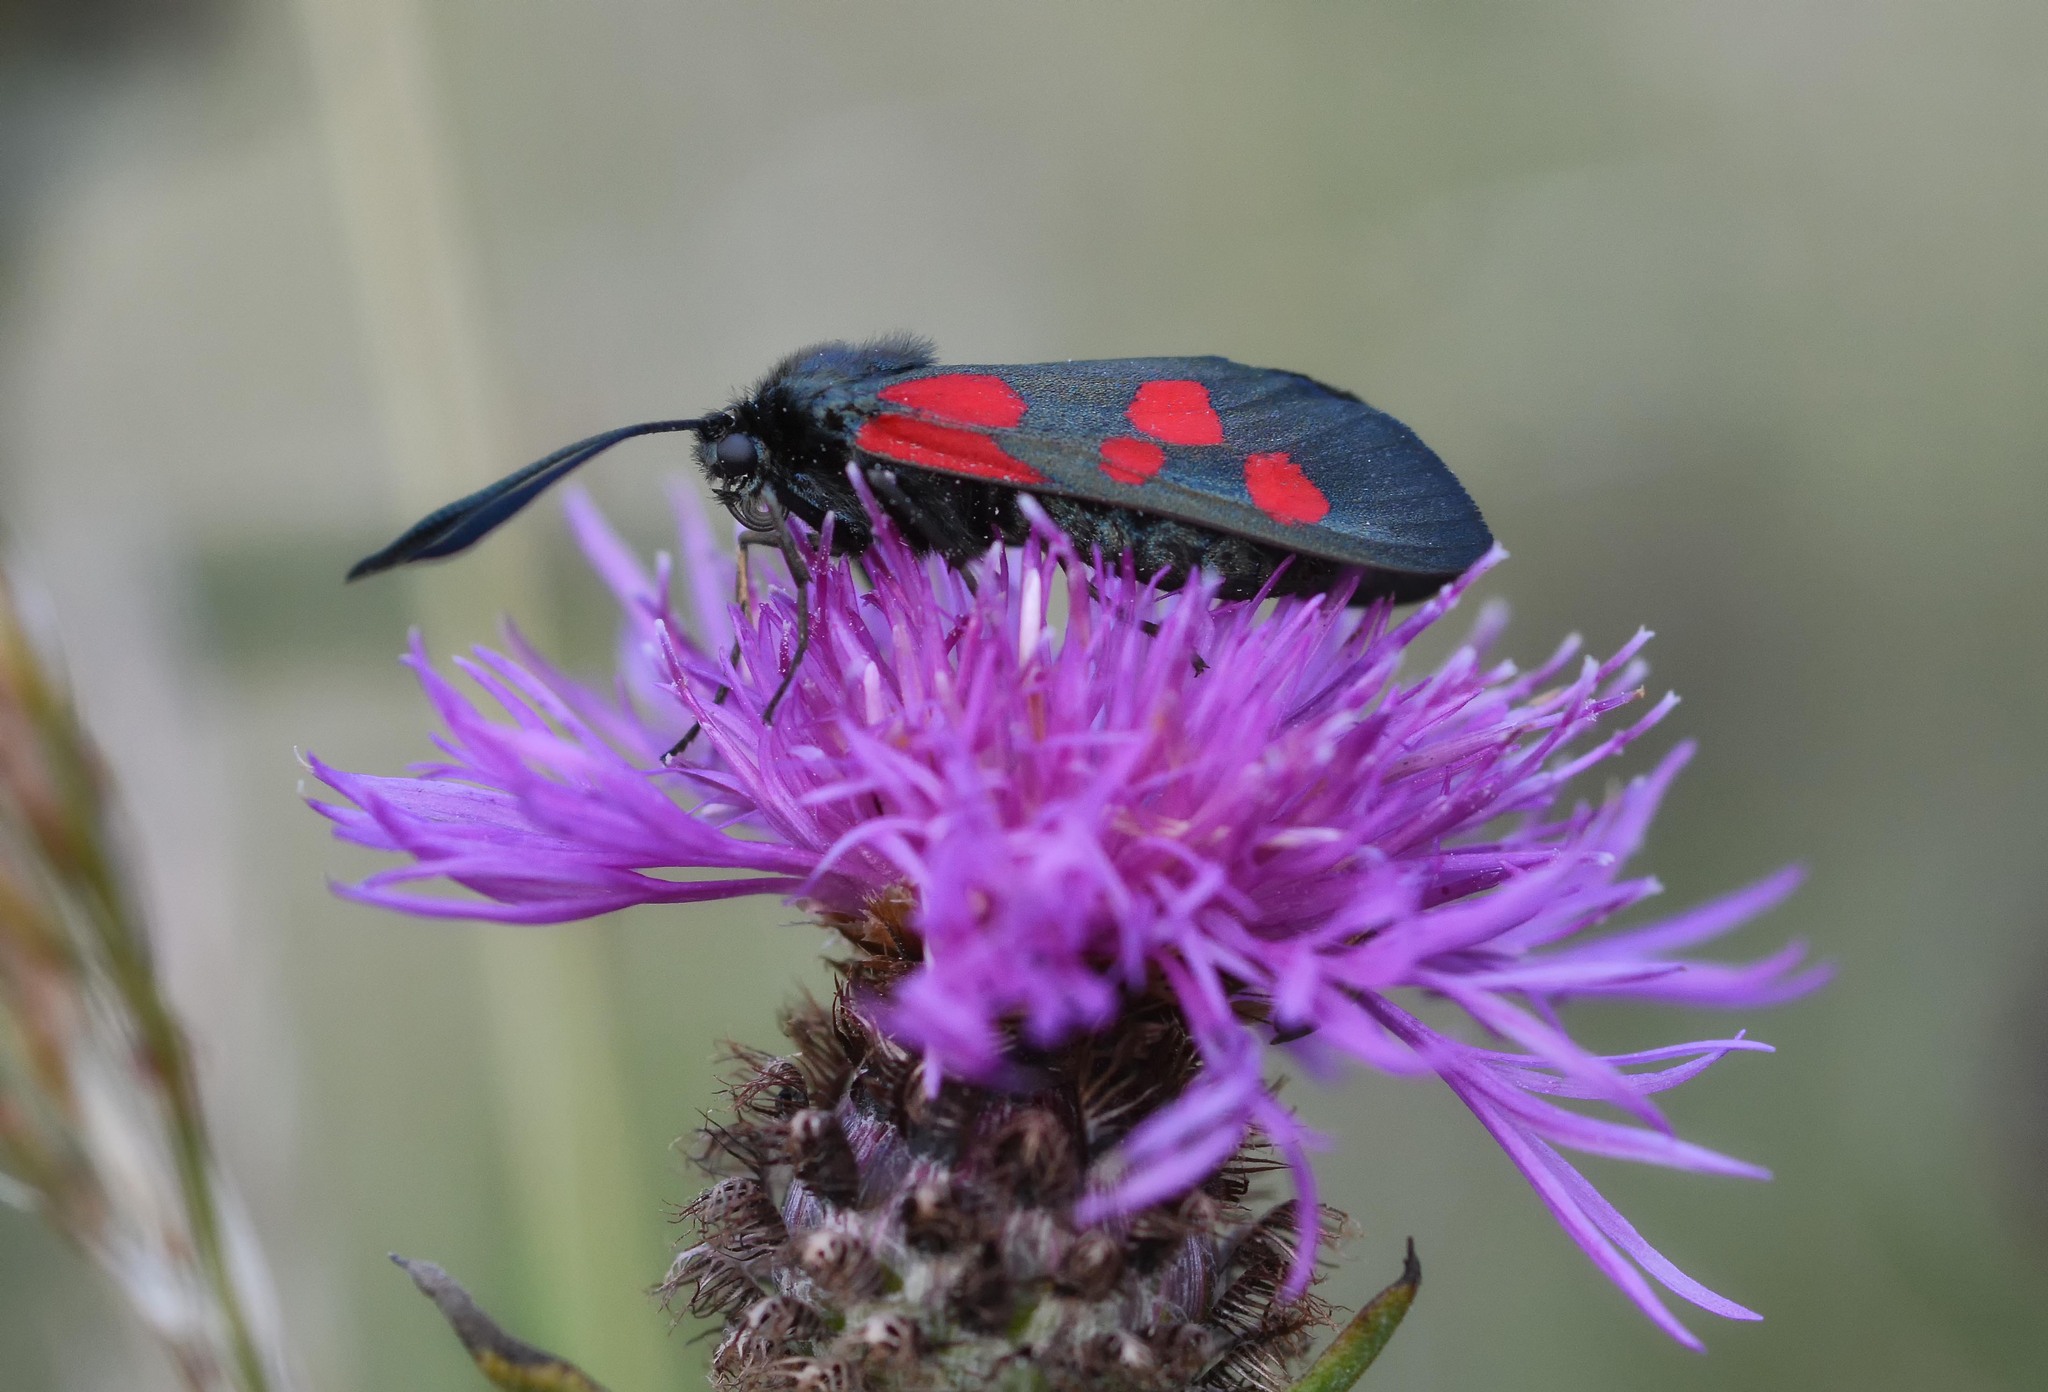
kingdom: Animalia
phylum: Arthropoda
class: Insecta
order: Lepidoptera
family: Zygaenidae
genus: Zygaena
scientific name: Zygaena
